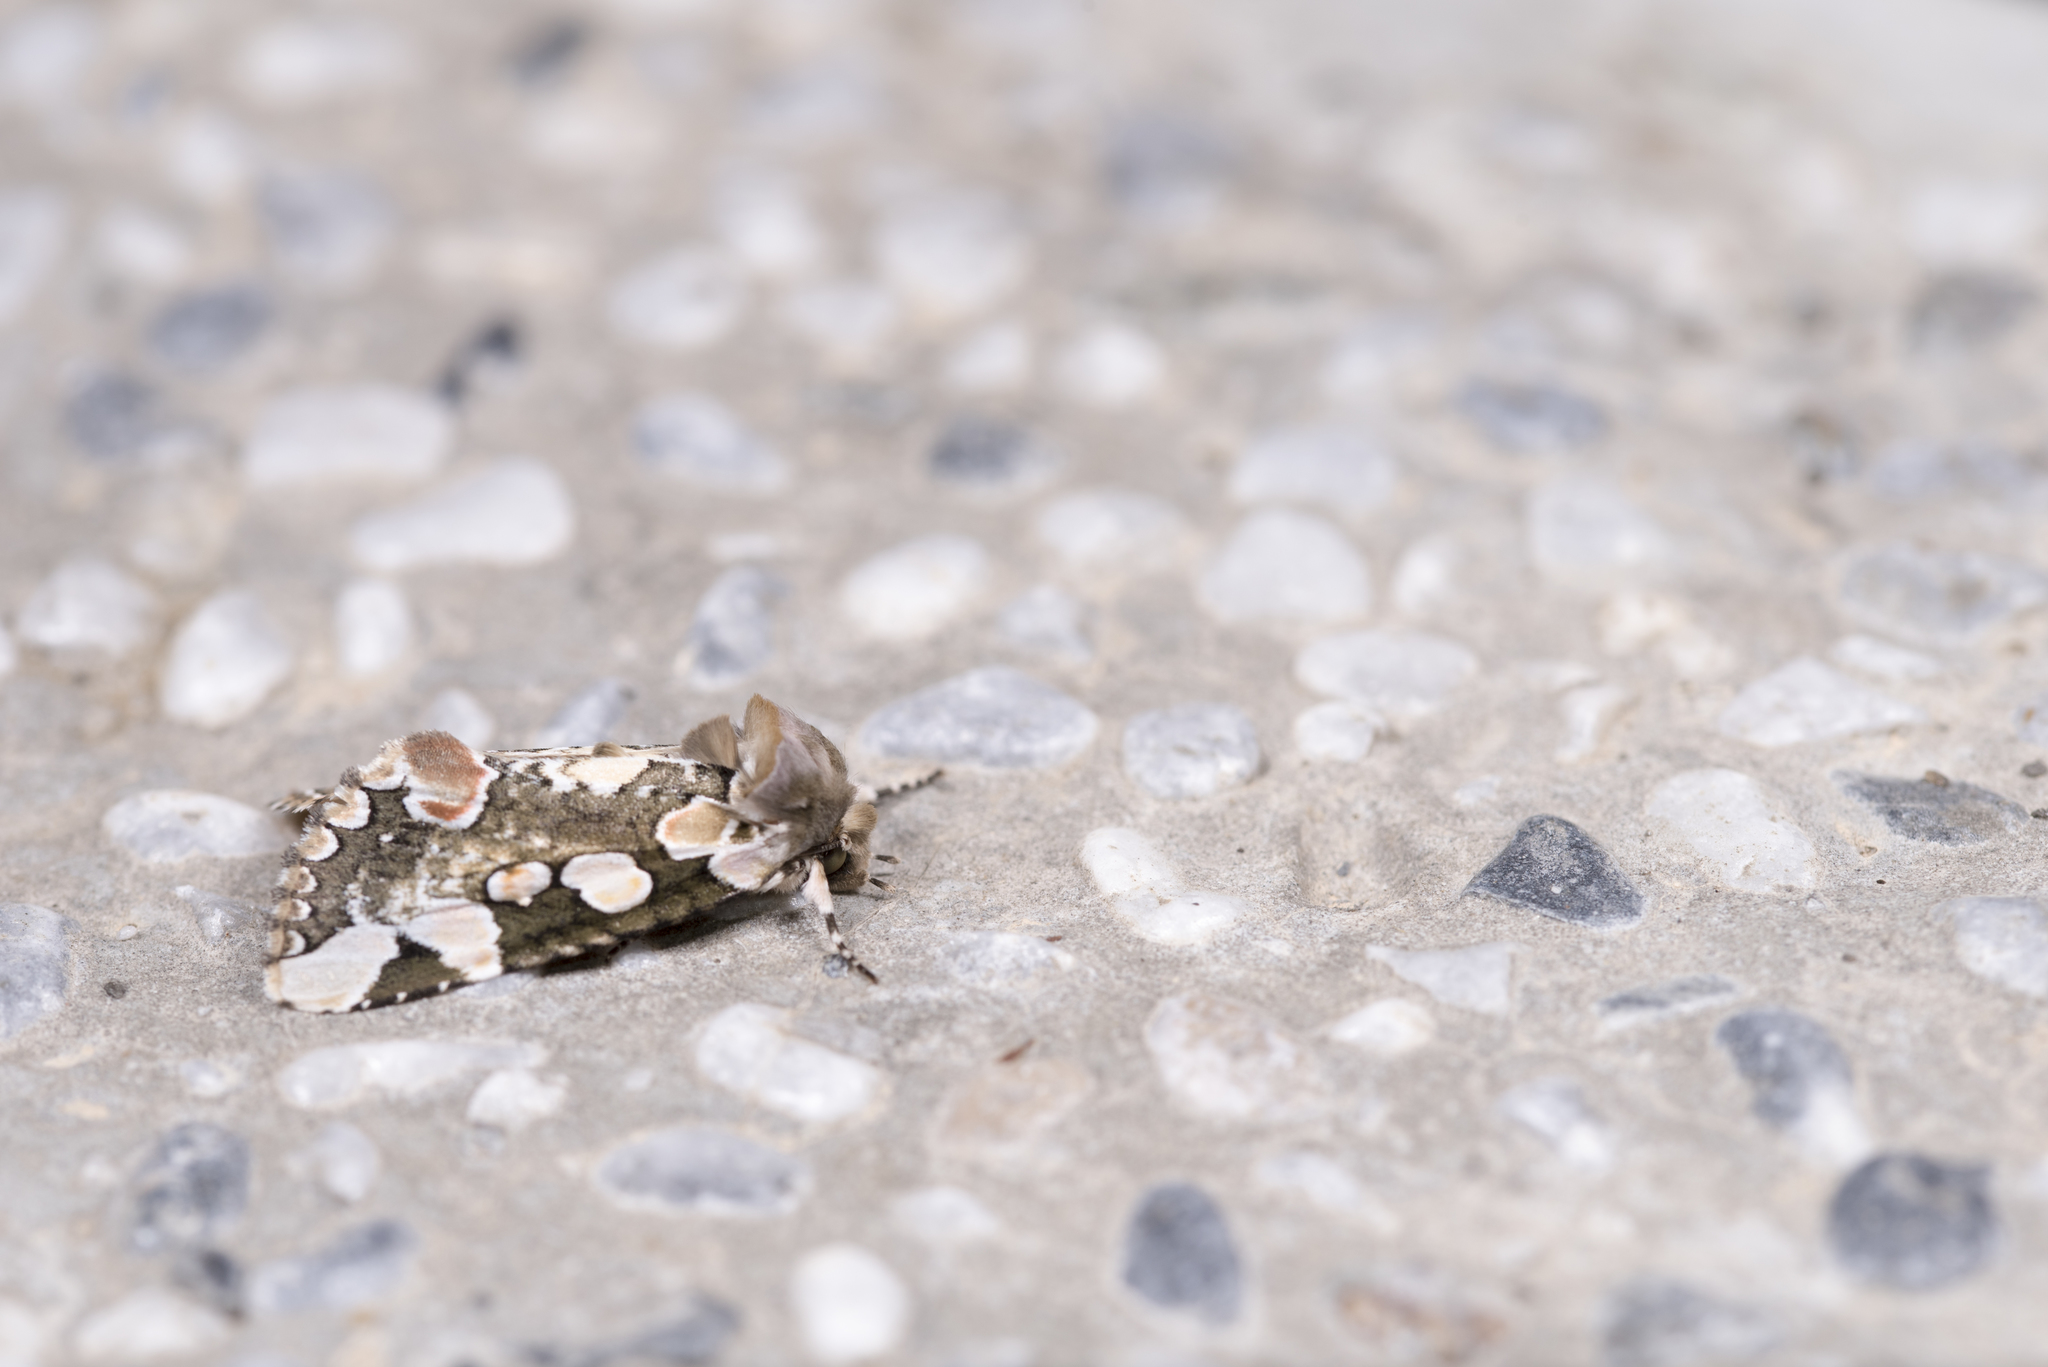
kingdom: Animalia
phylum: Arthropoda
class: Insecta
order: Lepidoptera
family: Drepanidae
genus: Horithyatira
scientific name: Horithyatira takamukui
